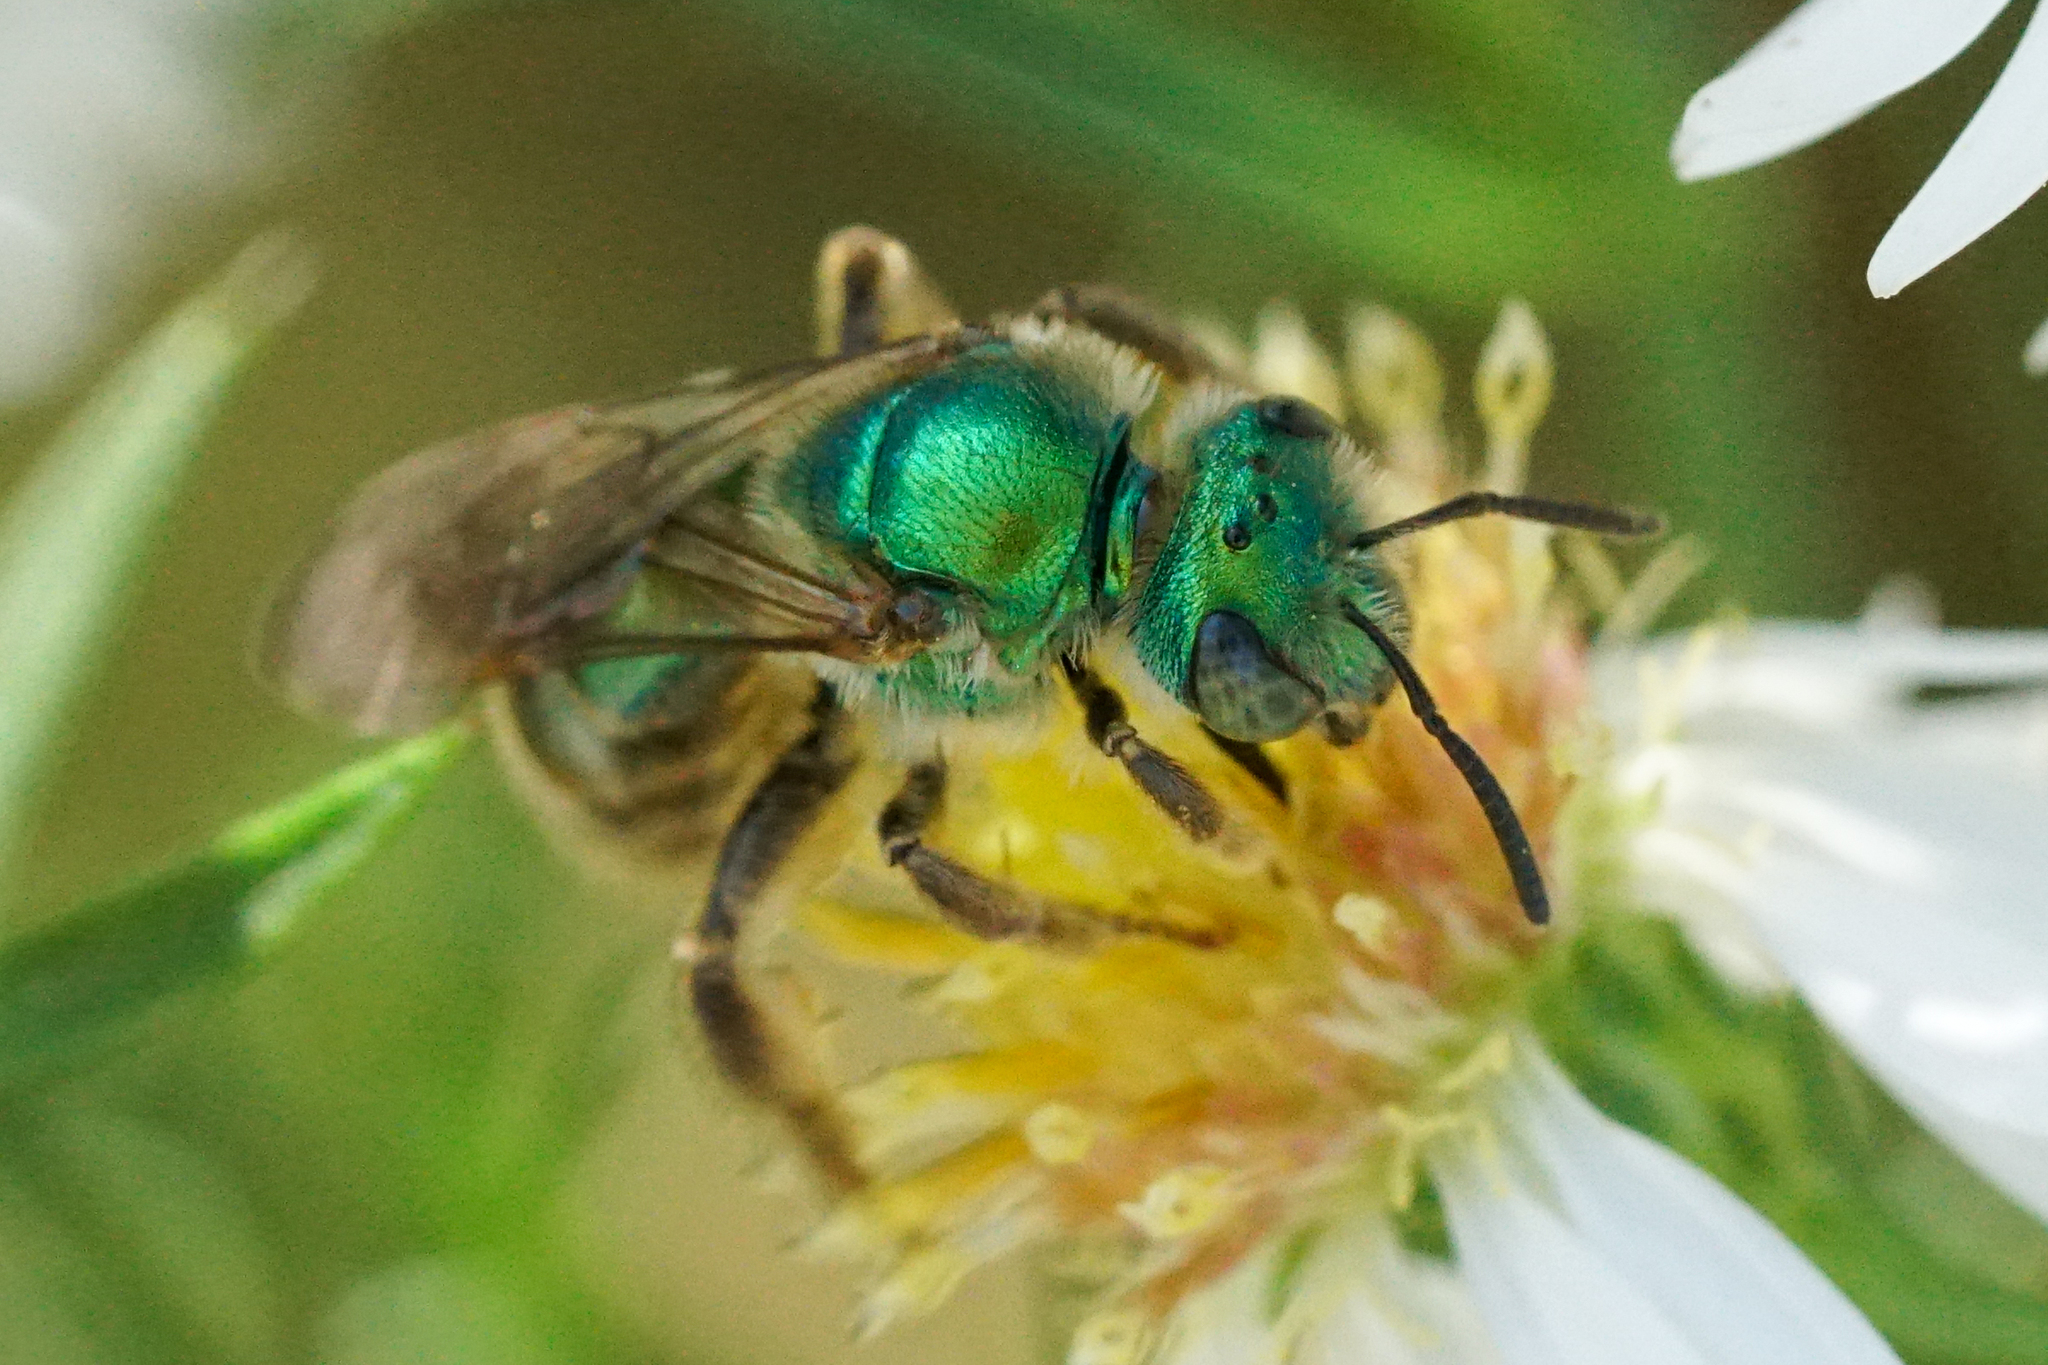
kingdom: Animalia
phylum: Arthropoda
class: Insecta
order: Hymenoptera
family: Halictidae
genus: Agapostemon
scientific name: Agapostemon texanus
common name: Texas striped sweat bee
